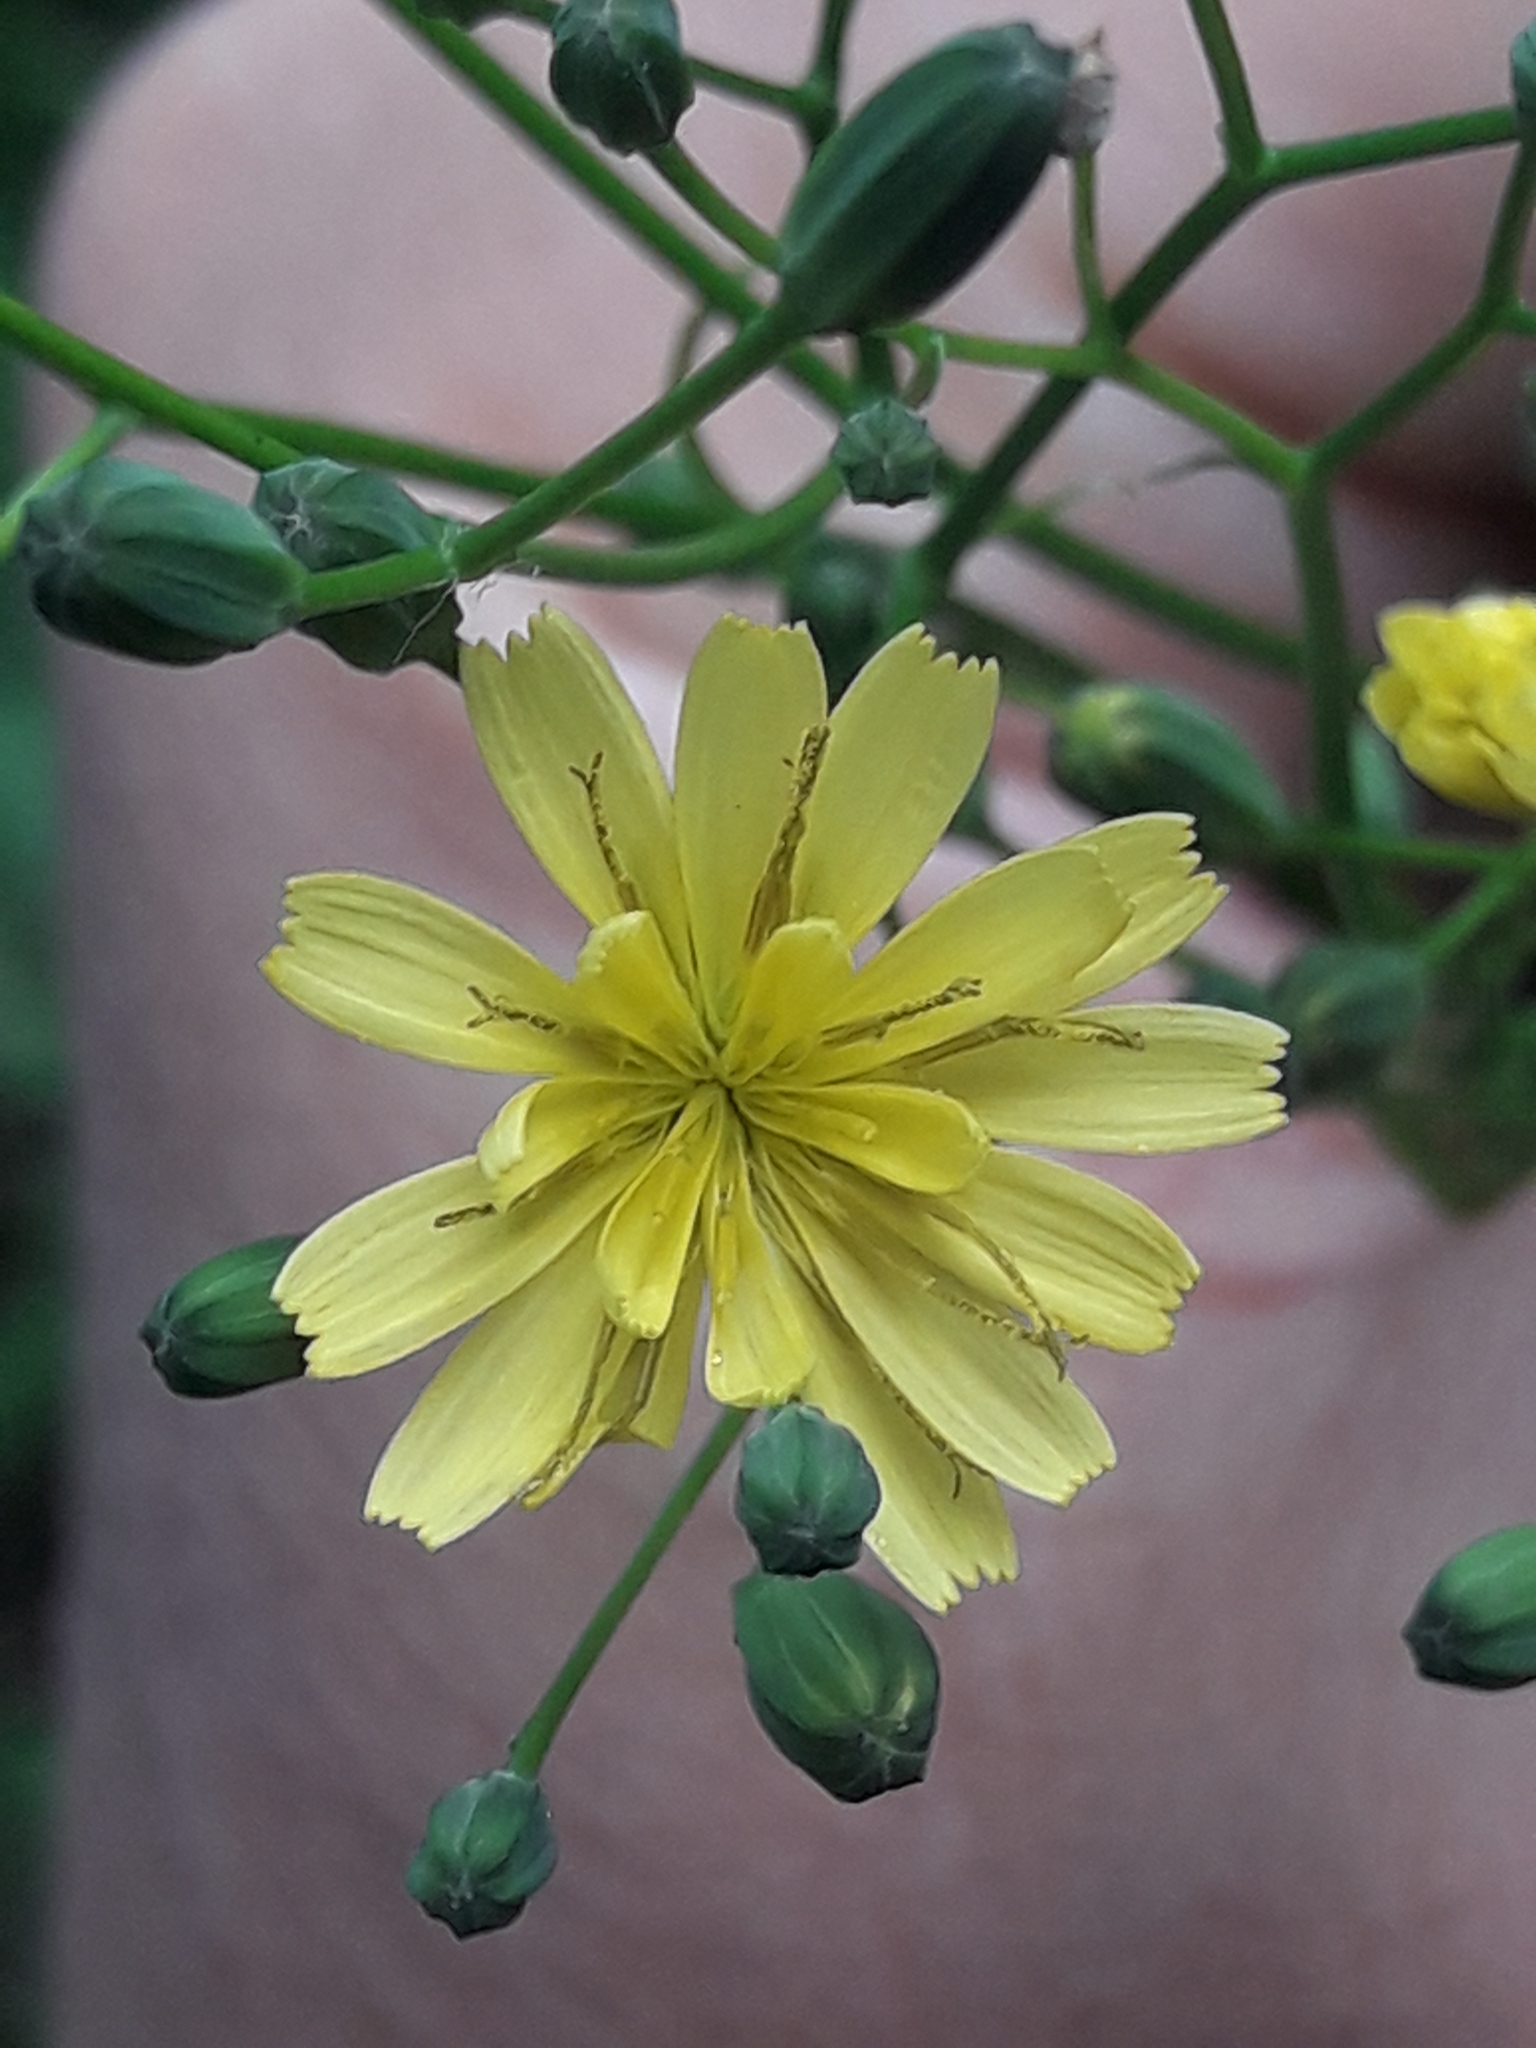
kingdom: Plantae
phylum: Tracheophyta
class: Magnoliopsida
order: Asterales
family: Asteraceae
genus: Lapsana
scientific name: Lapsana communis
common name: Nipplewort
